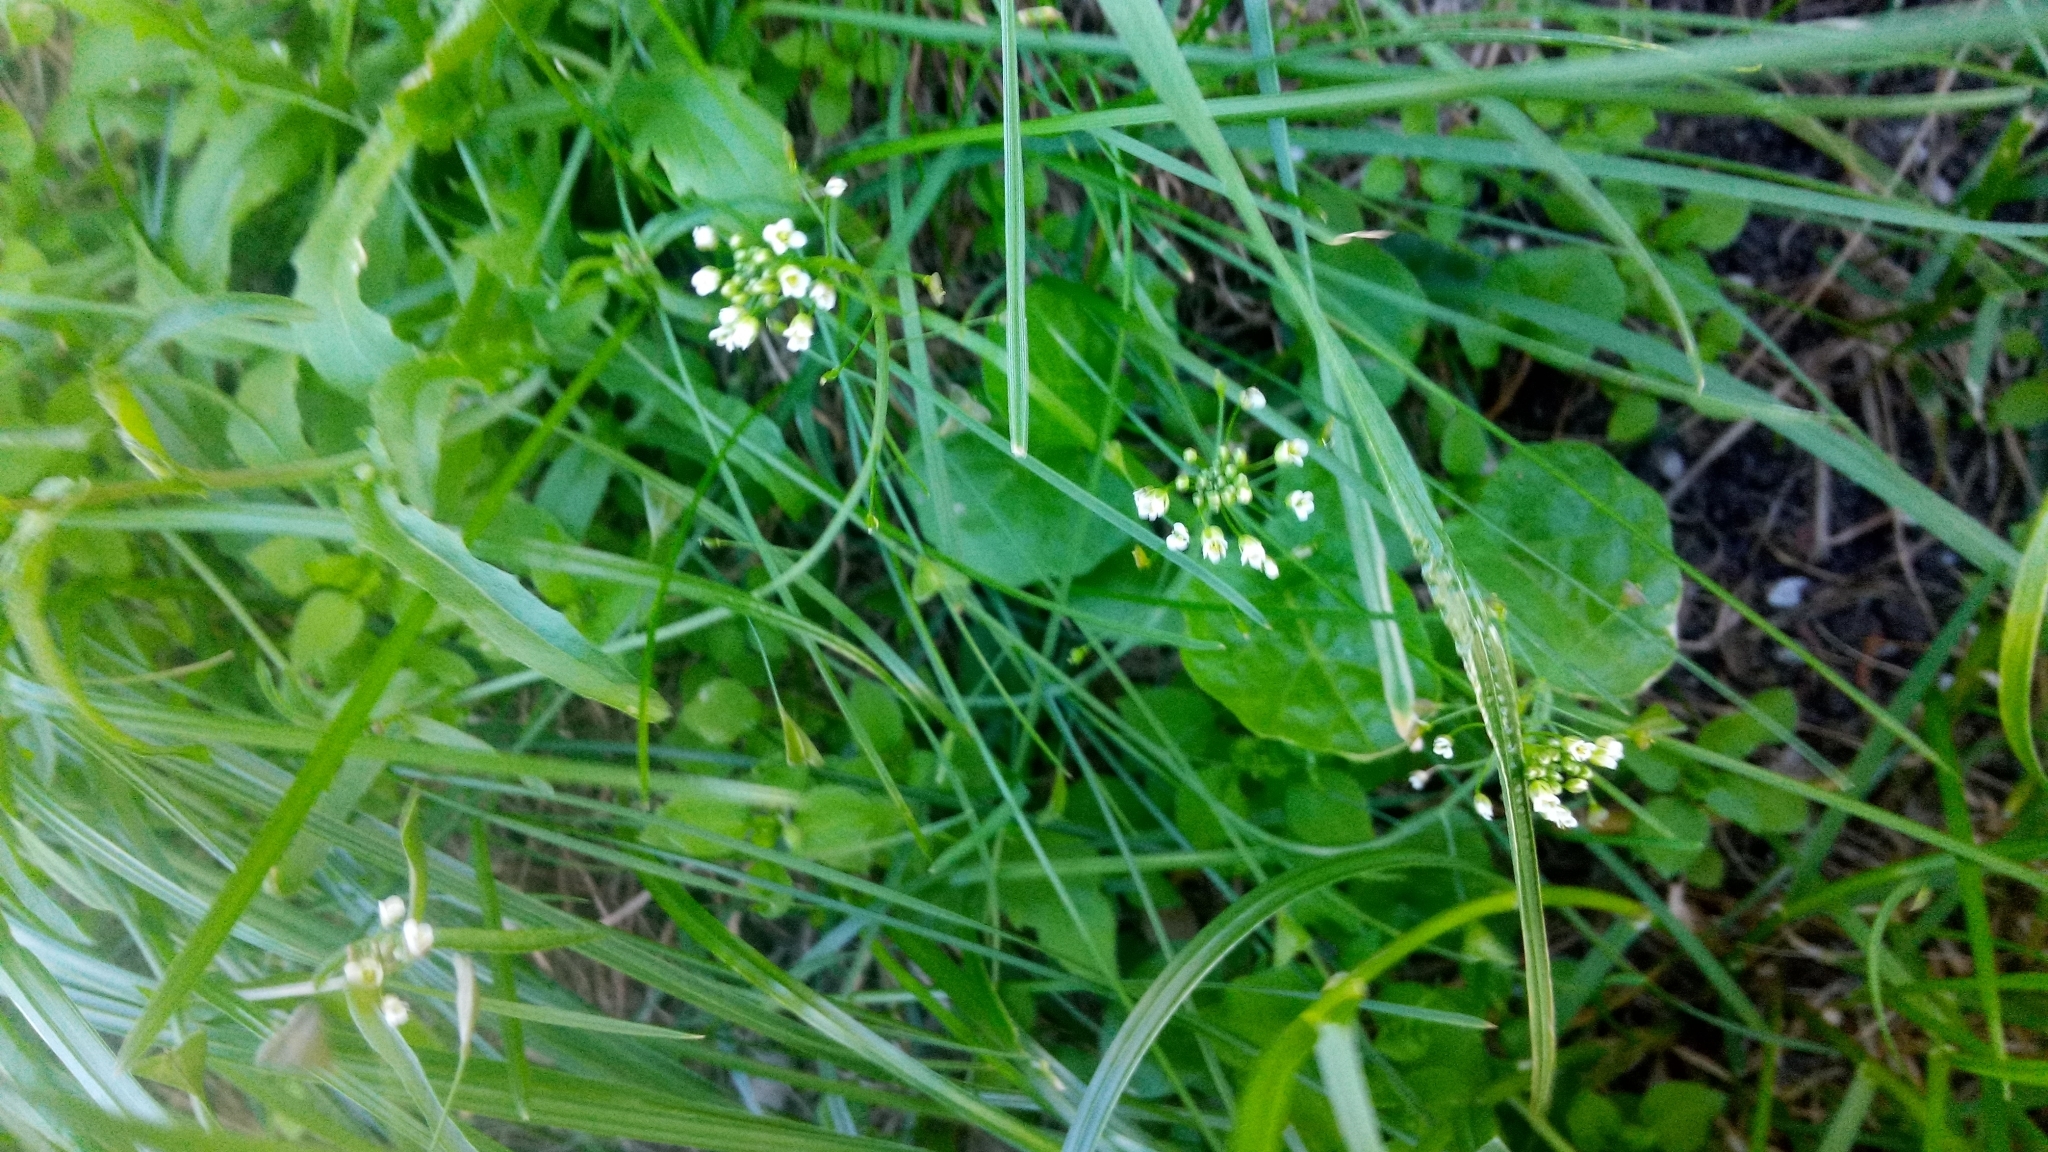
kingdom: Plantae
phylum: Tracheophyta
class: Magnoliopsida
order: Brassicales
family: Brassicaceae
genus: Capsella
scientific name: Capsella bursa-pastoris
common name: Shepherd's purse
